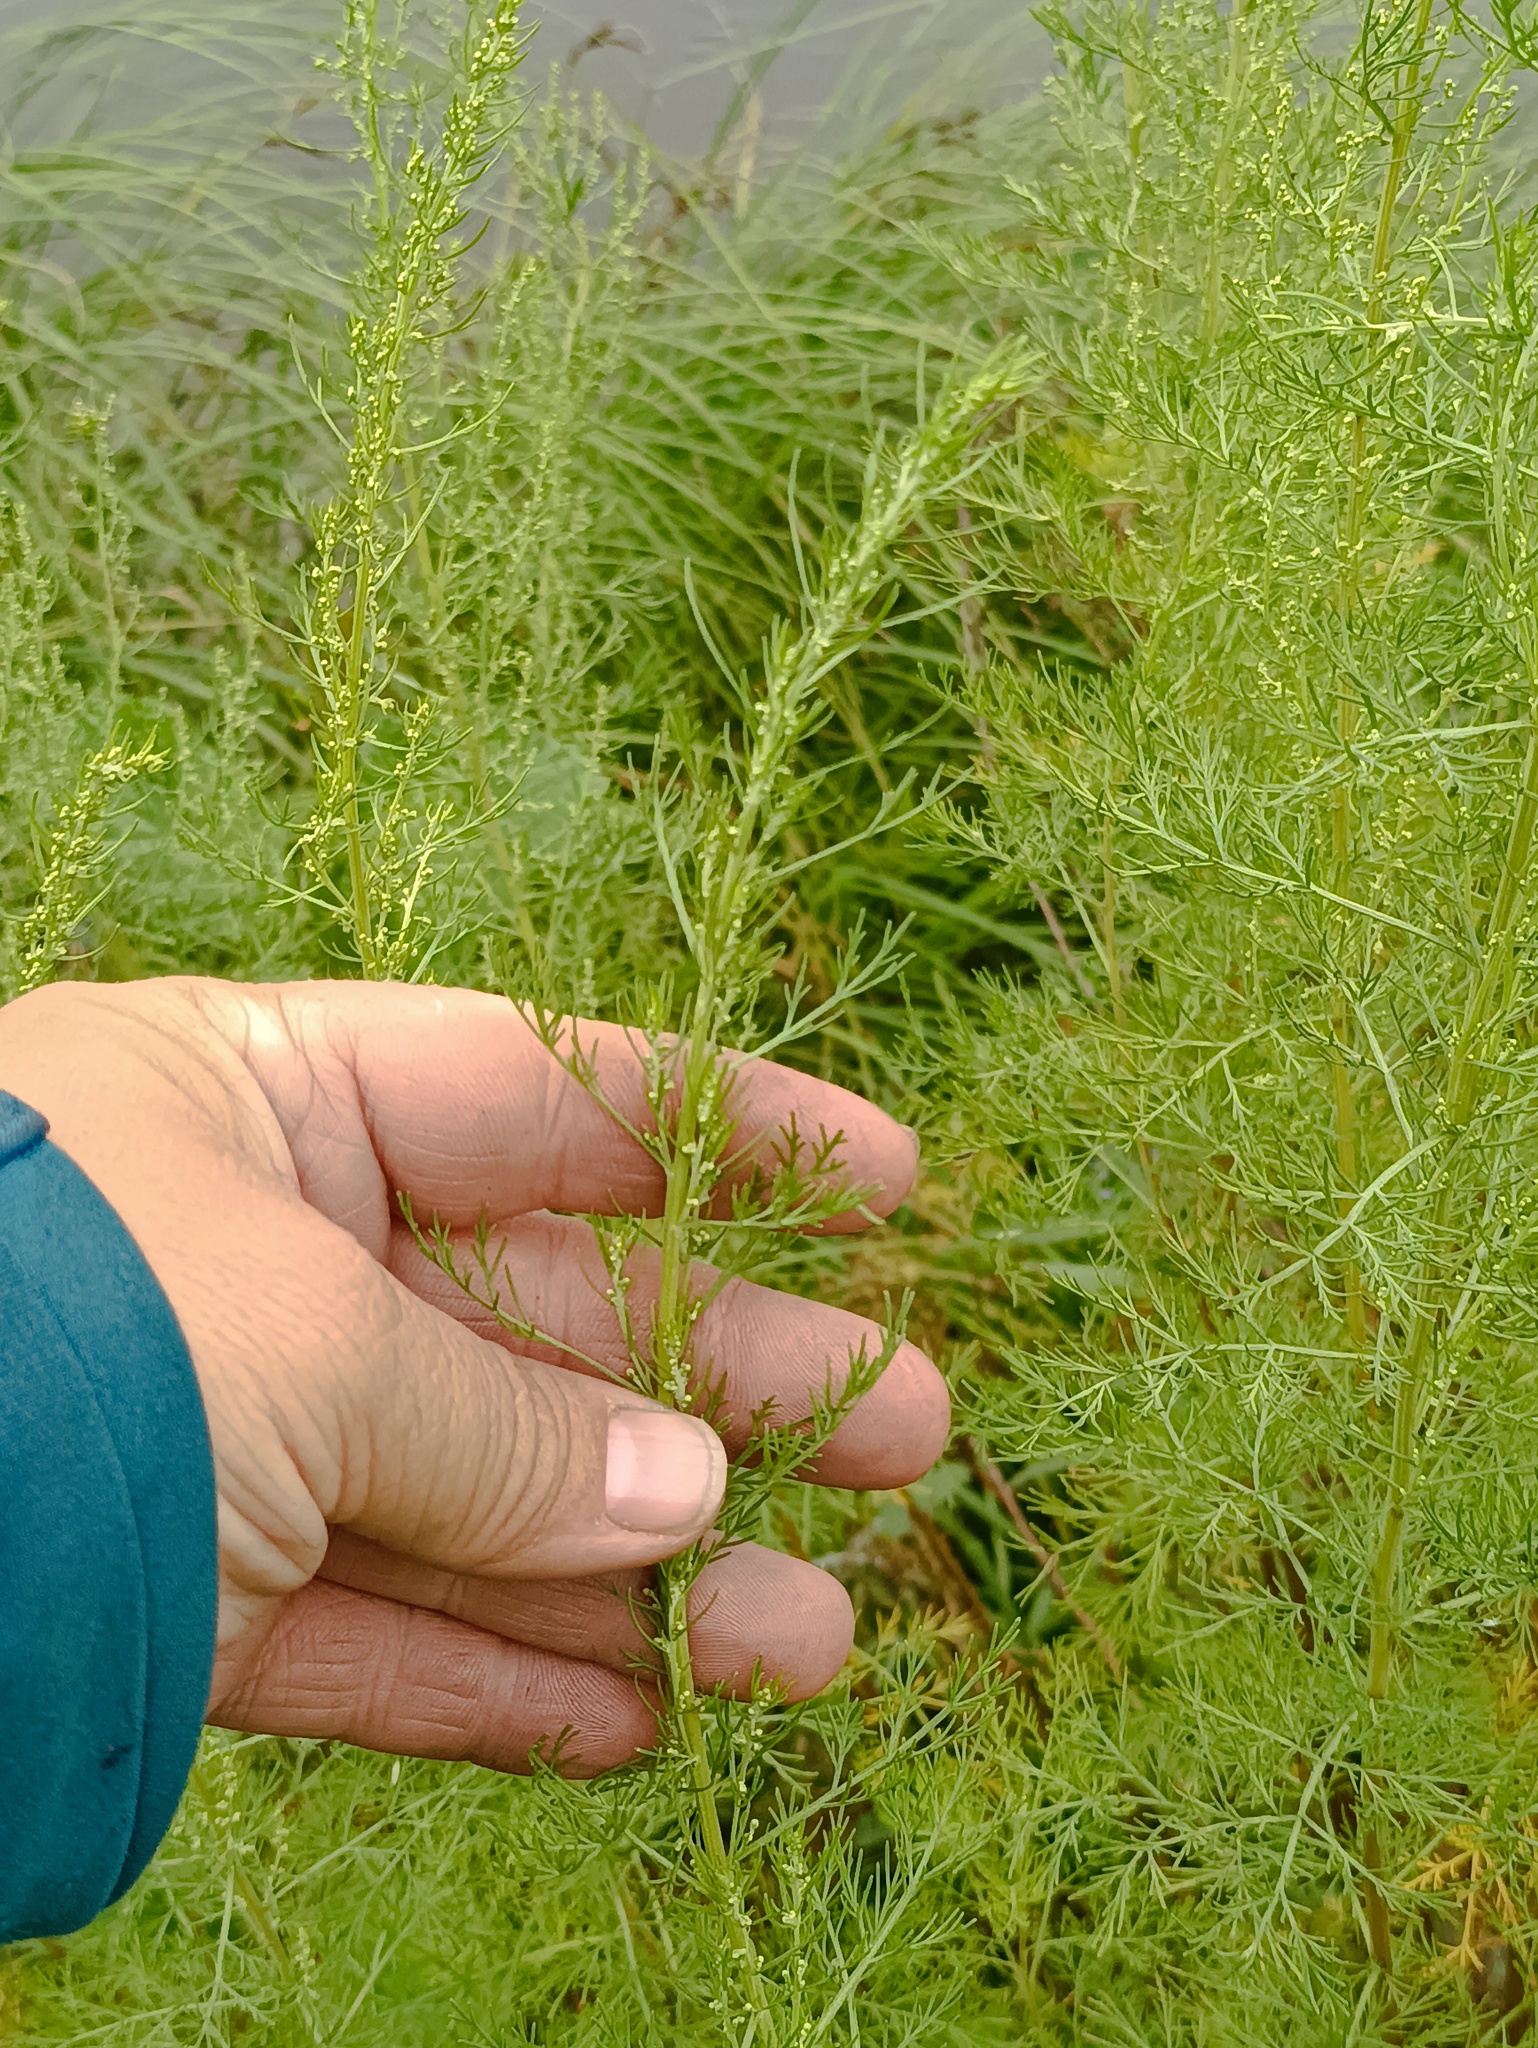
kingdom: Plantae
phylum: Tracheophyta
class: Magnoliopsida
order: Asterales
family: Asteraceae
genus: Artemisia
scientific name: Artemisia abrotanum
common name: Southernwood
